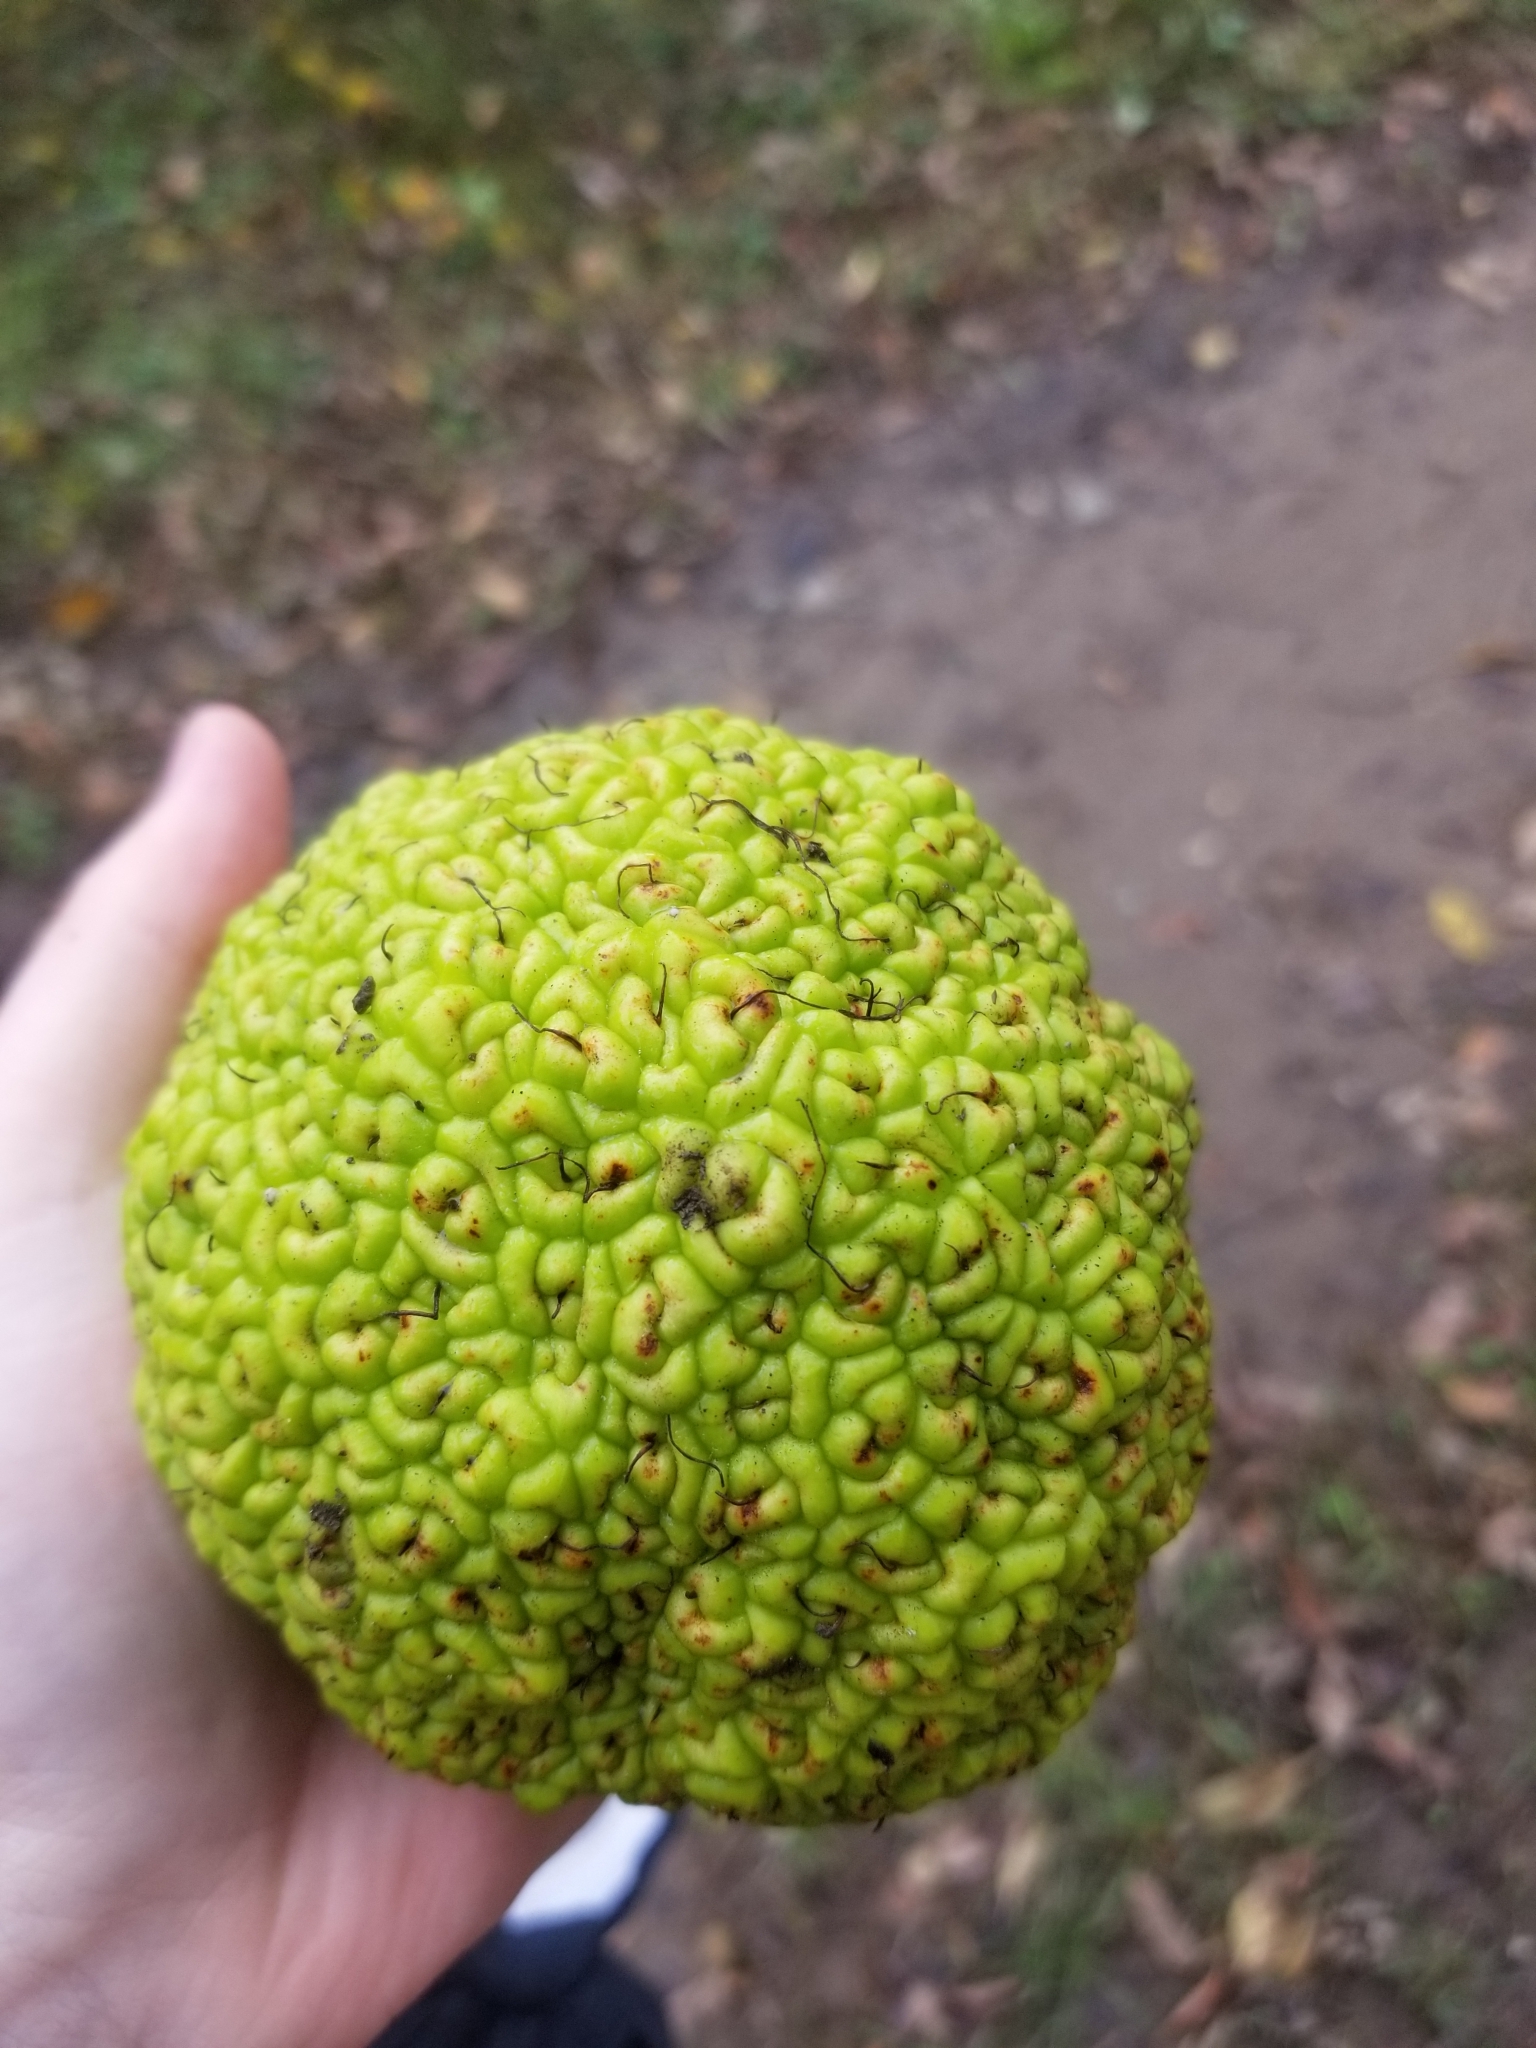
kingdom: Plantae
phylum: Tracheophyta
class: Magnoliopsida
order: Rosales
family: Moraceae
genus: Maclura
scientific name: Maclura pomifera
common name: Osage-orange
